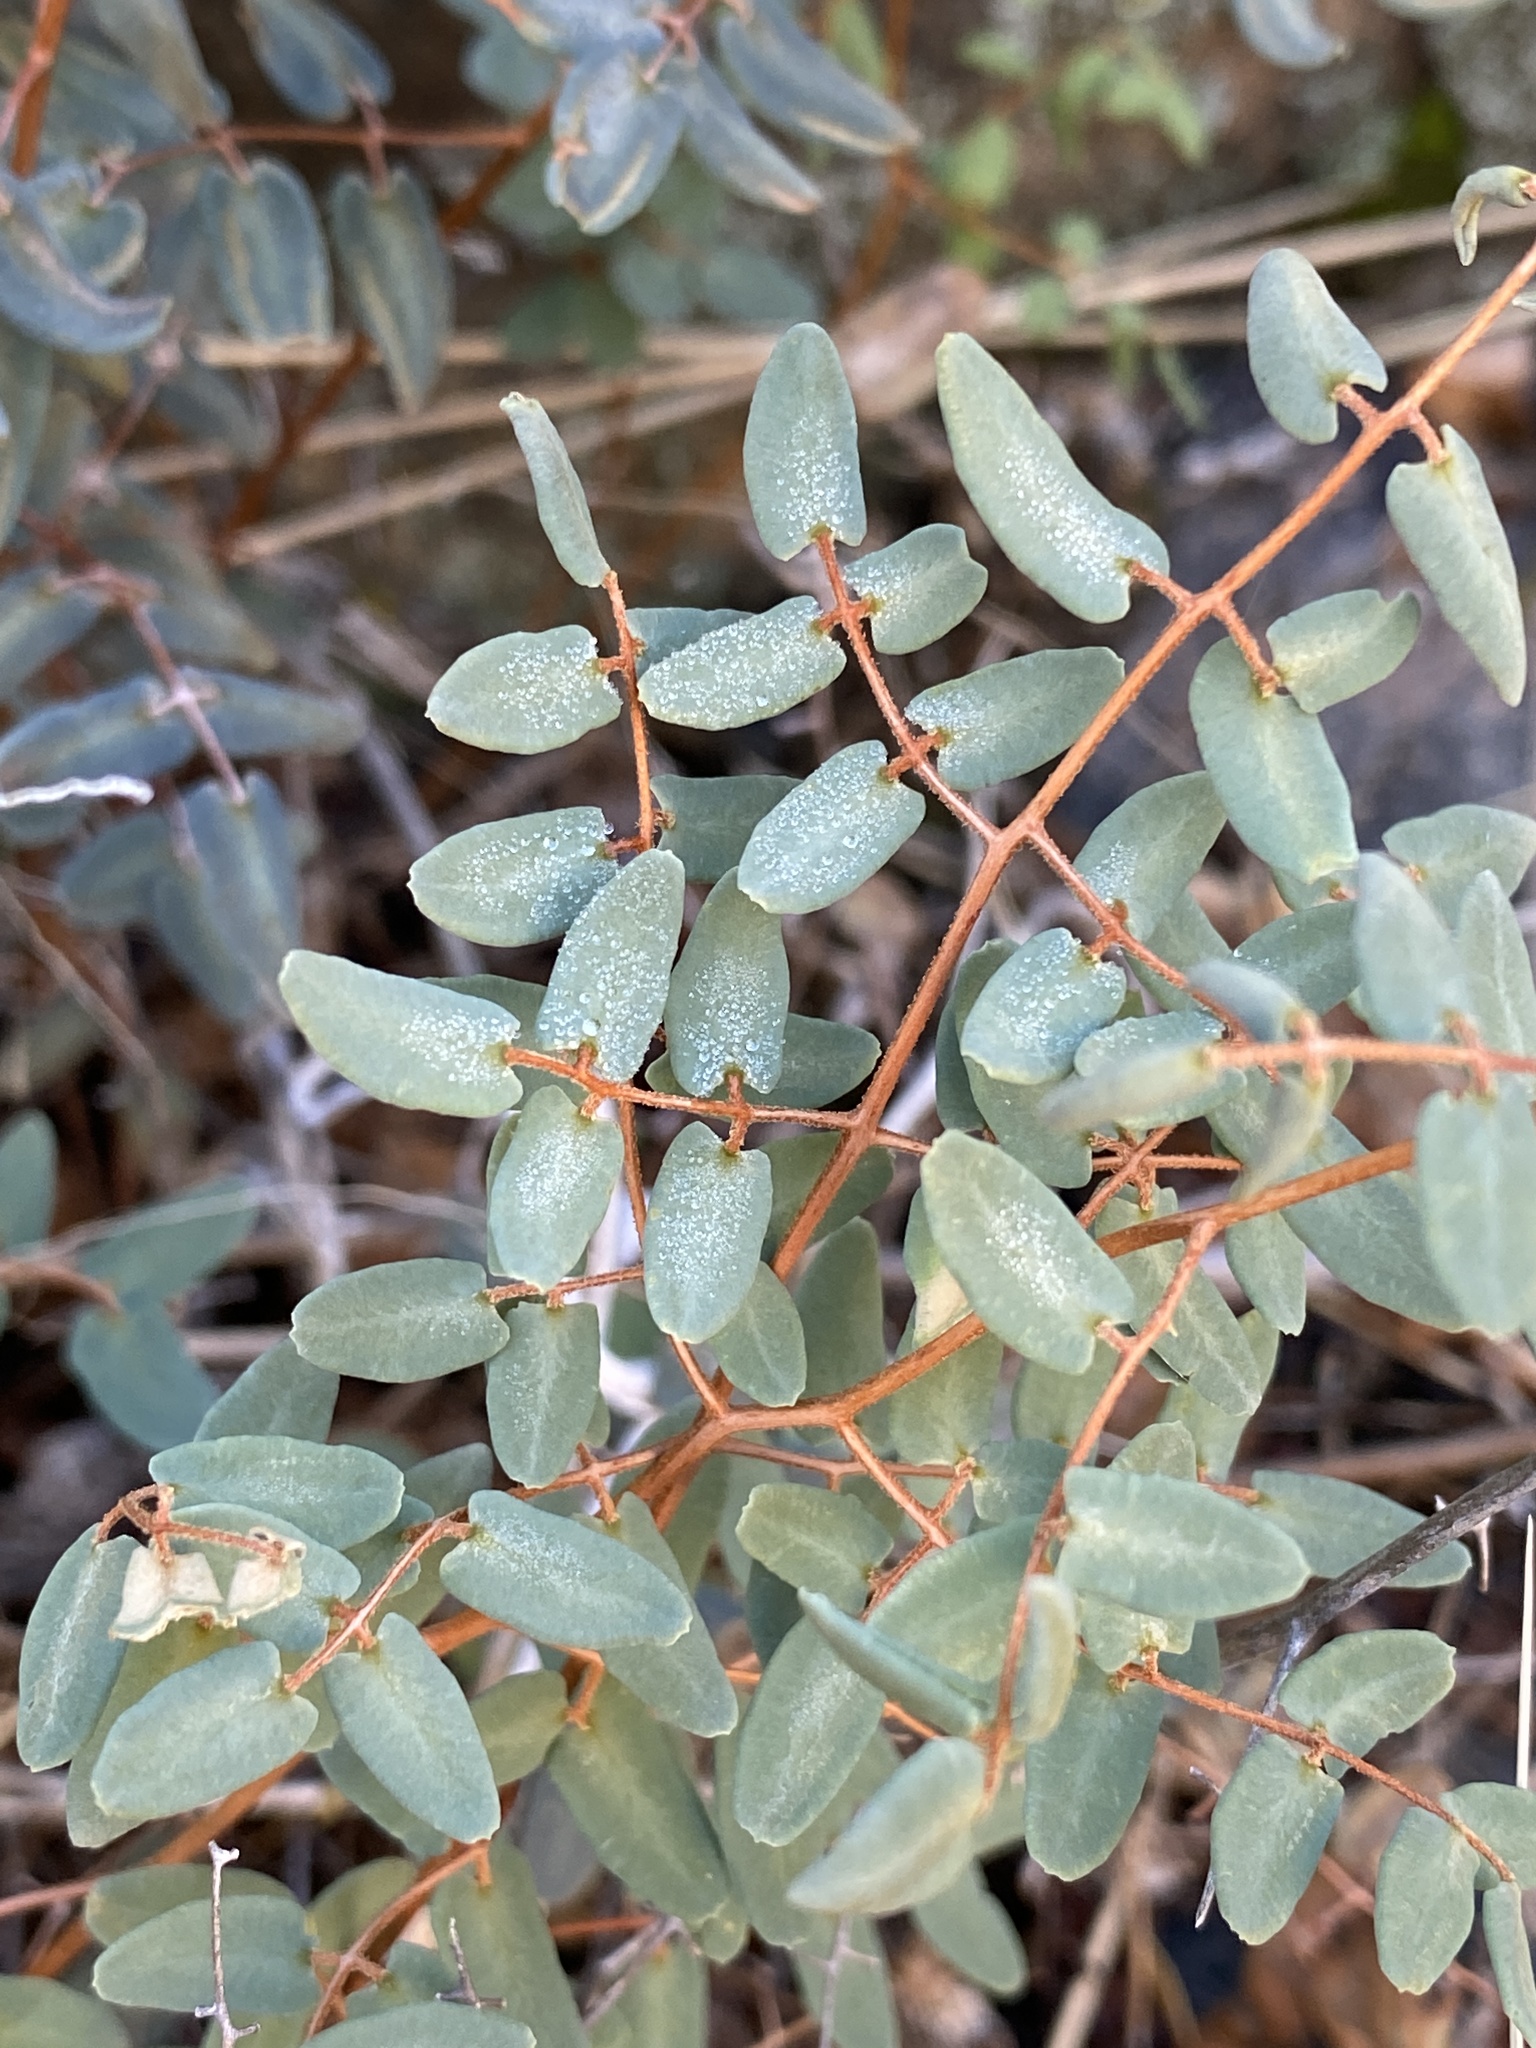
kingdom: Plantae
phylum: Tracheophyta
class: Polypodiopsida
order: Polypodiales
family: Pteridaceae
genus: Pellaea
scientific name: Pellaea intermedia
